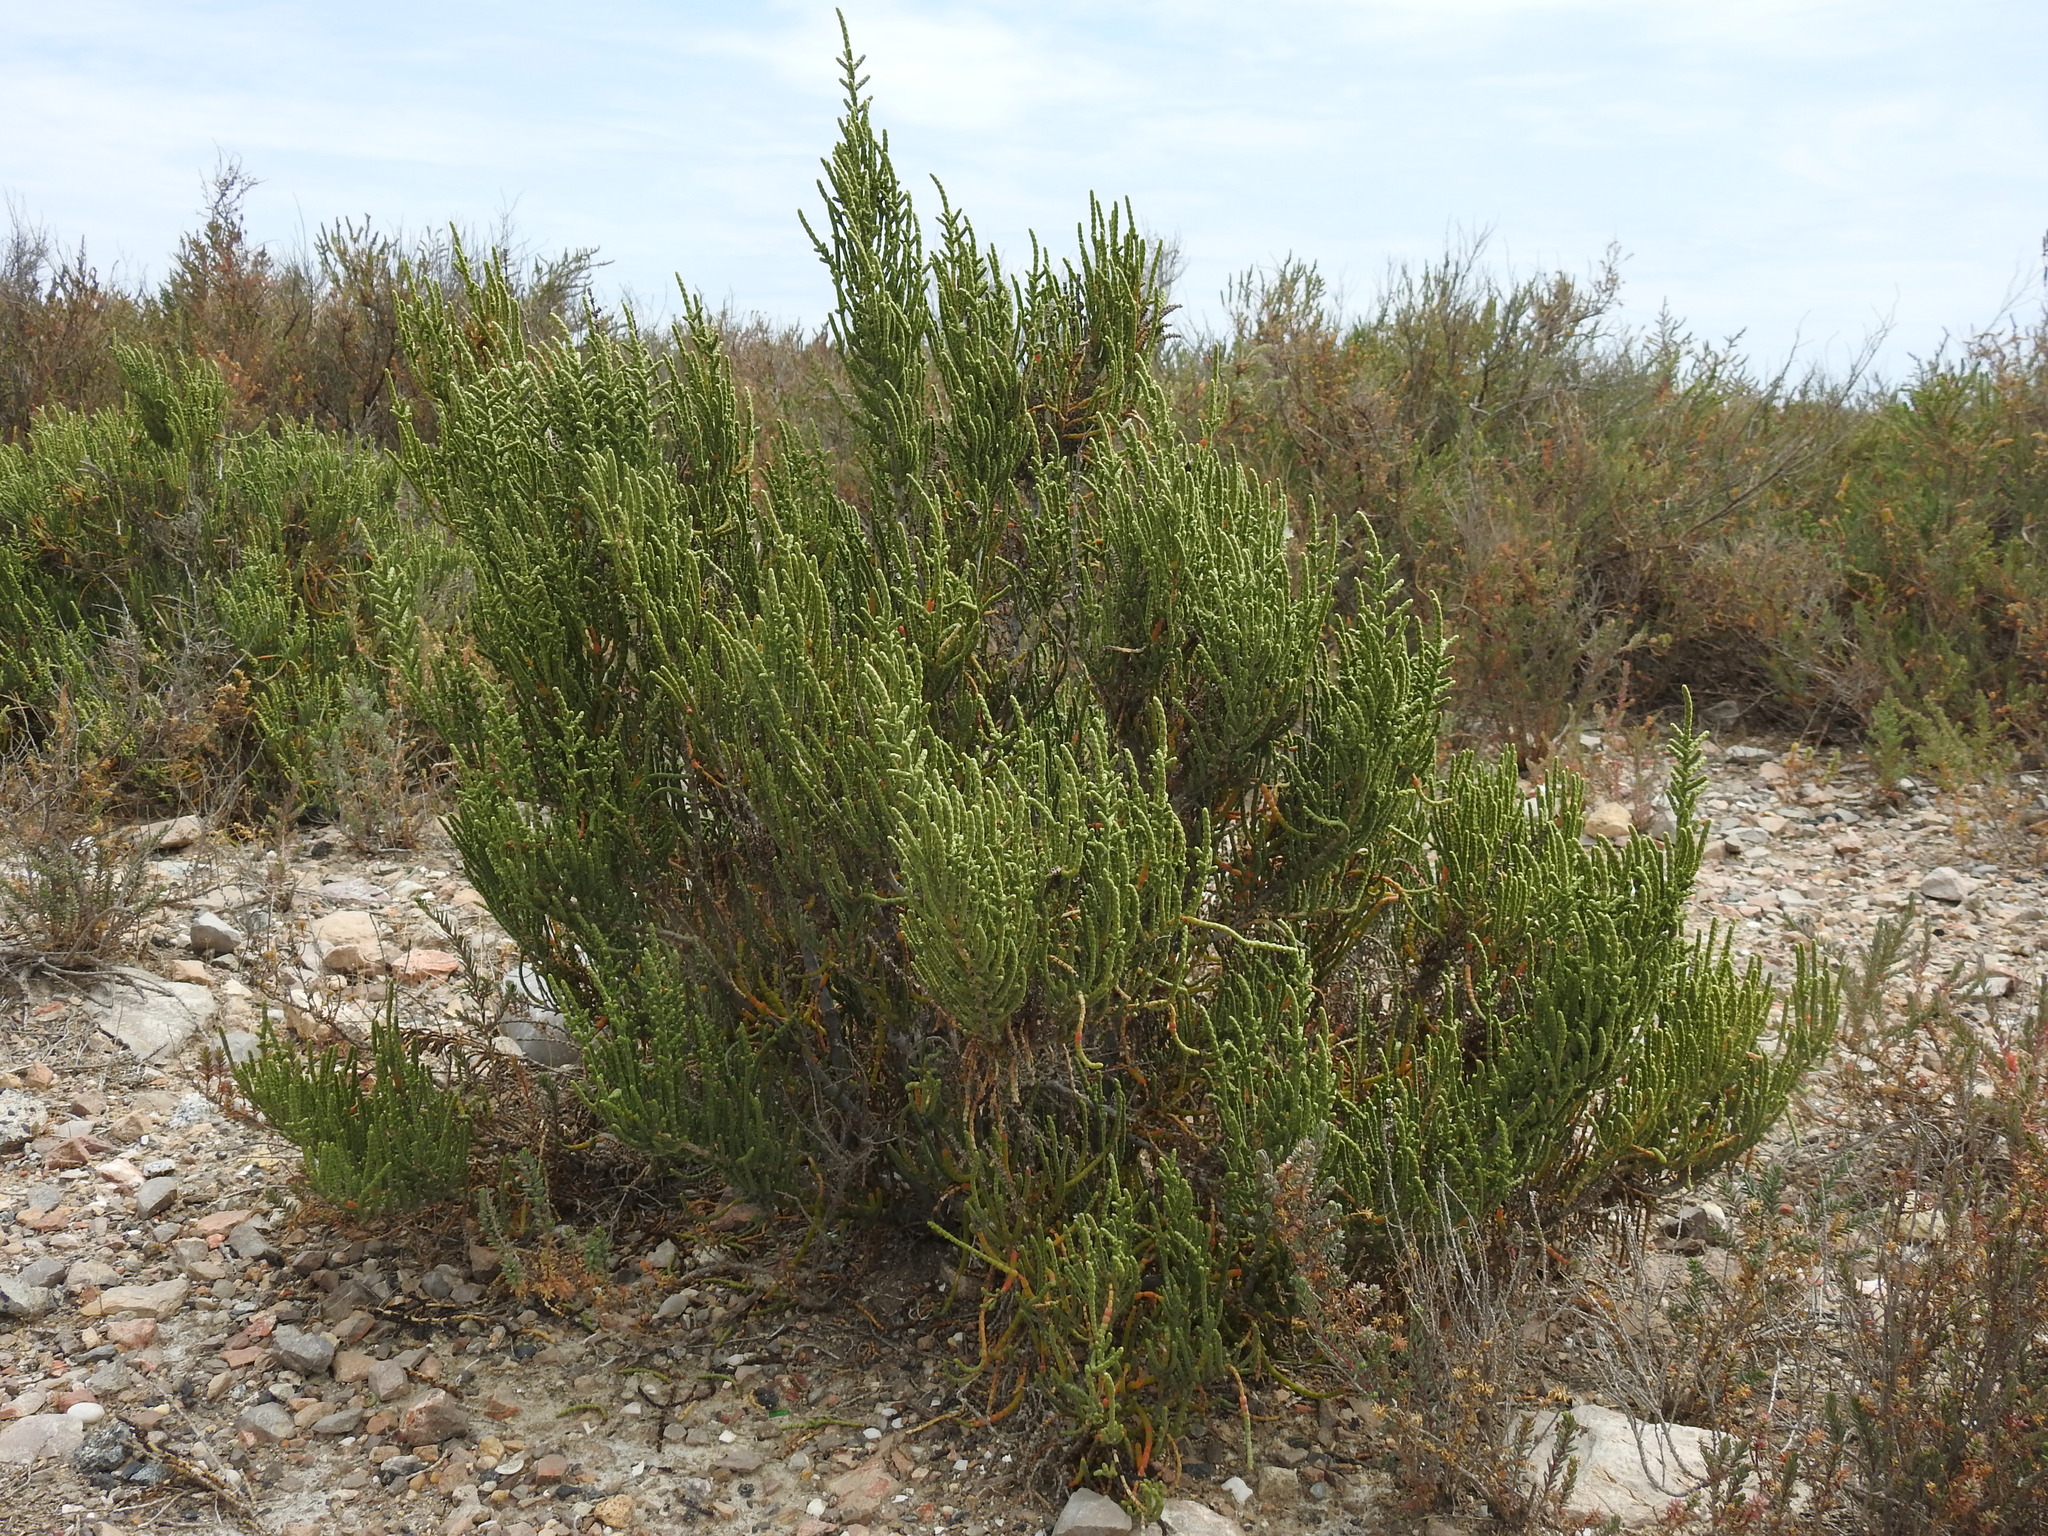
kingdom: Plantae
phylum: Tracheophyta
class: Magnoliopsida
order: Caryophyllales
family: Amaranthaceae
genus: Arthrocaulon
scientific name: Arthrocaulon macrostachyum
